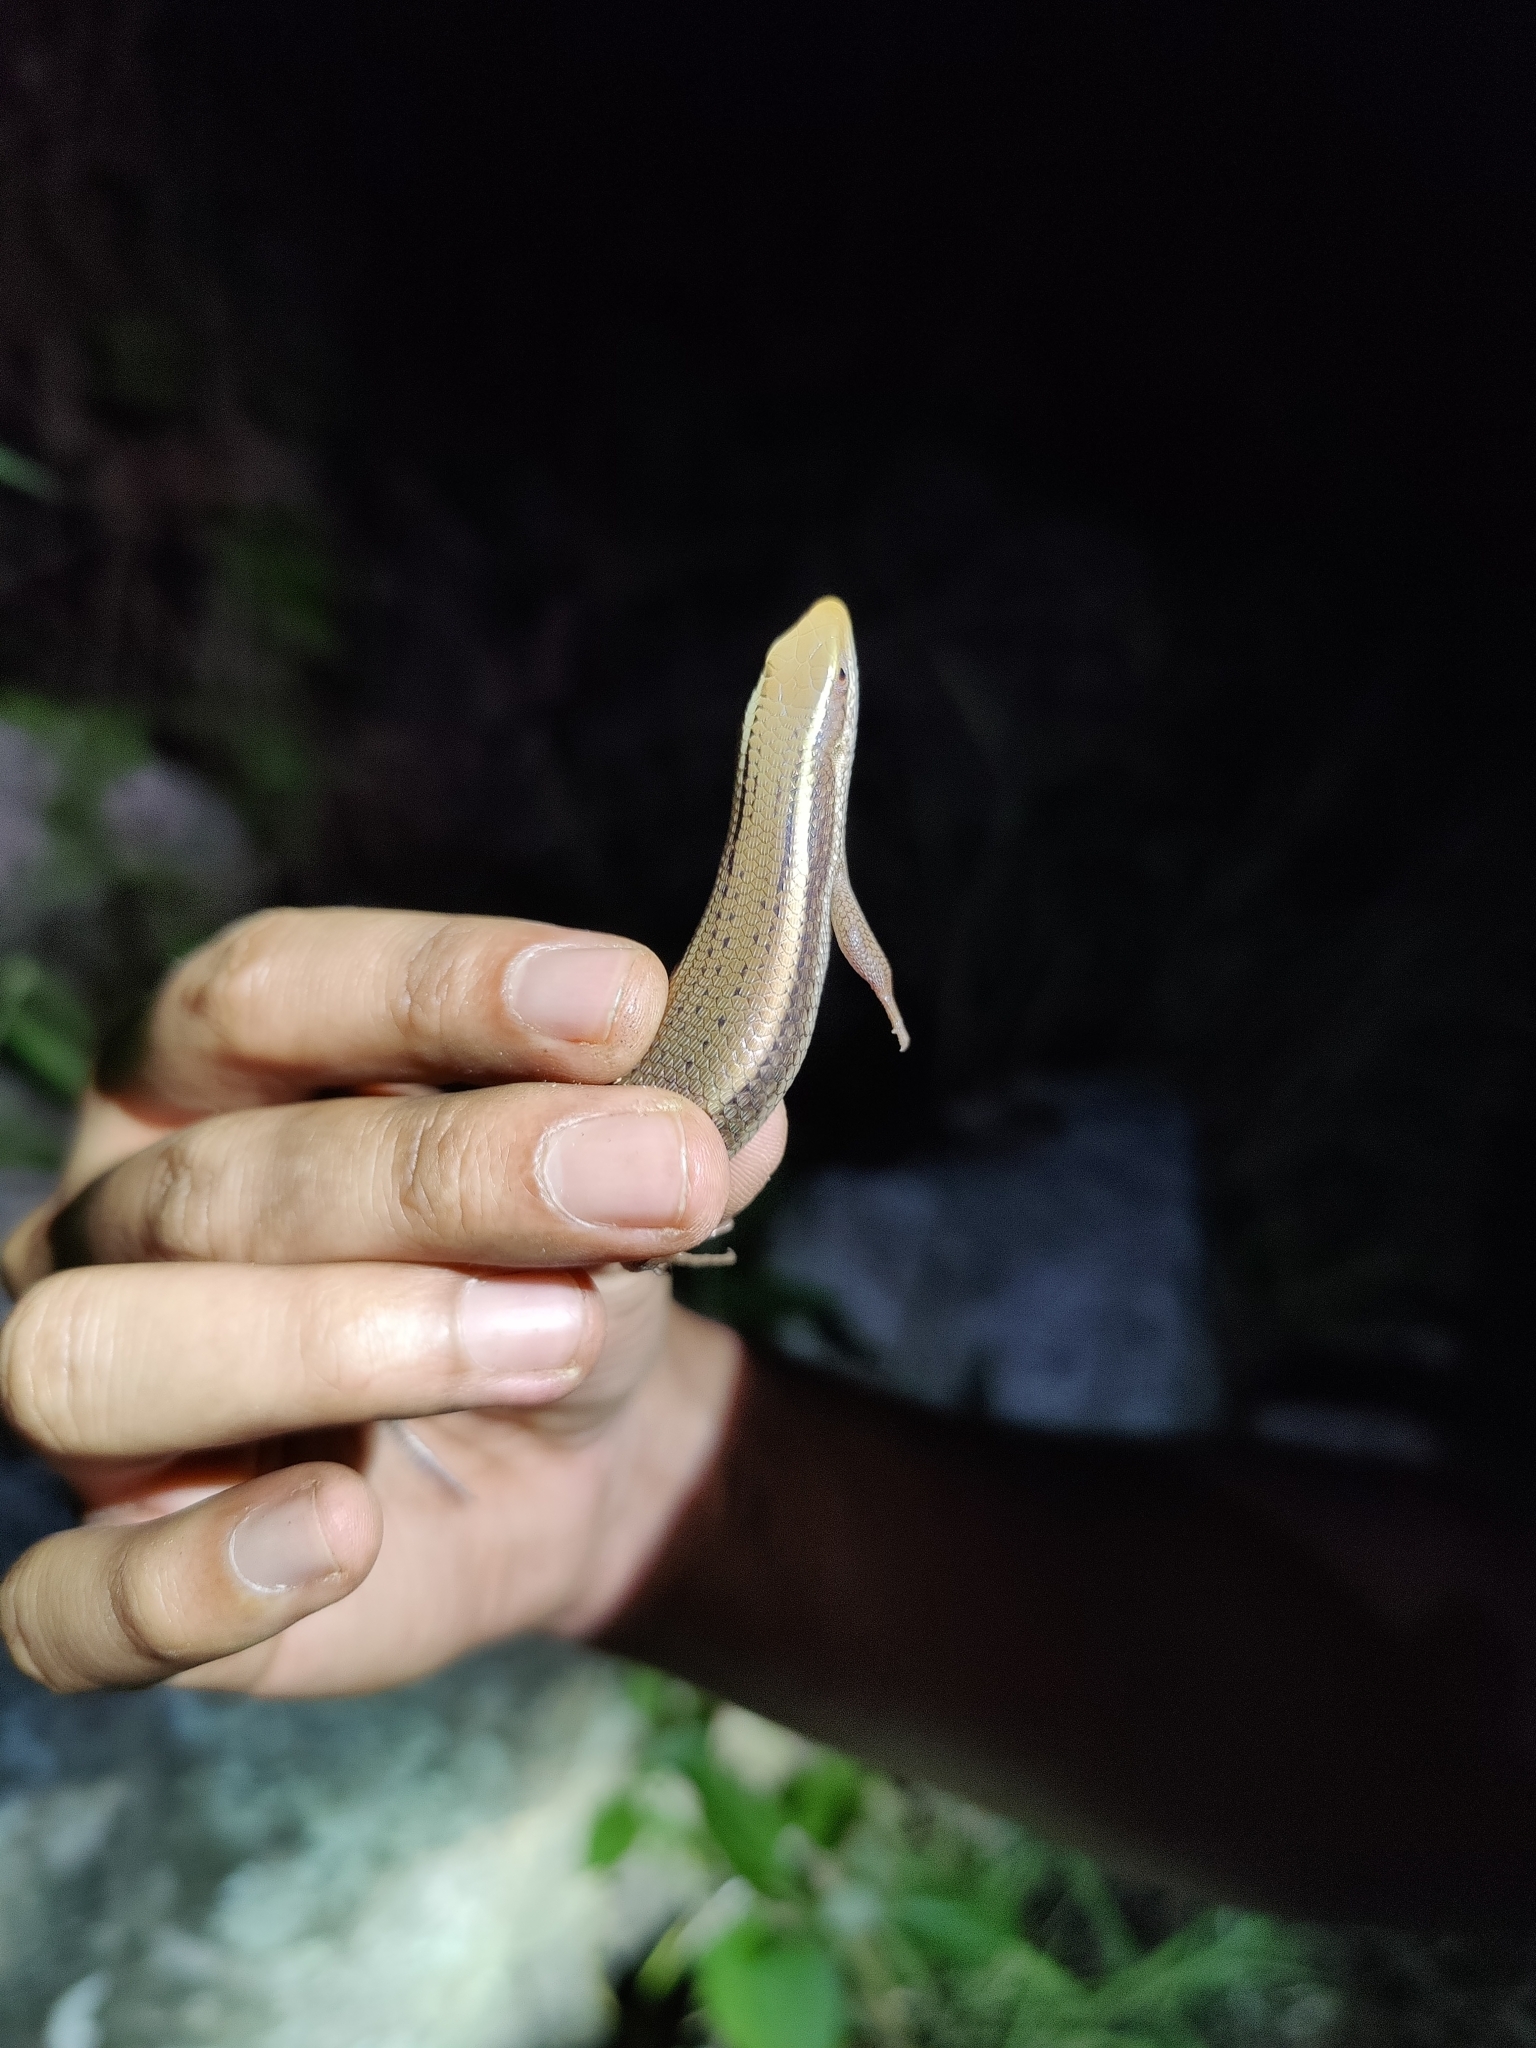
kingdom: Animalia
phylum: Chordata
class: Squamata
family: Scincidae
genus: Eutropis
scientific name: Eutropis carinata
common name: Keeled indian mabuya
